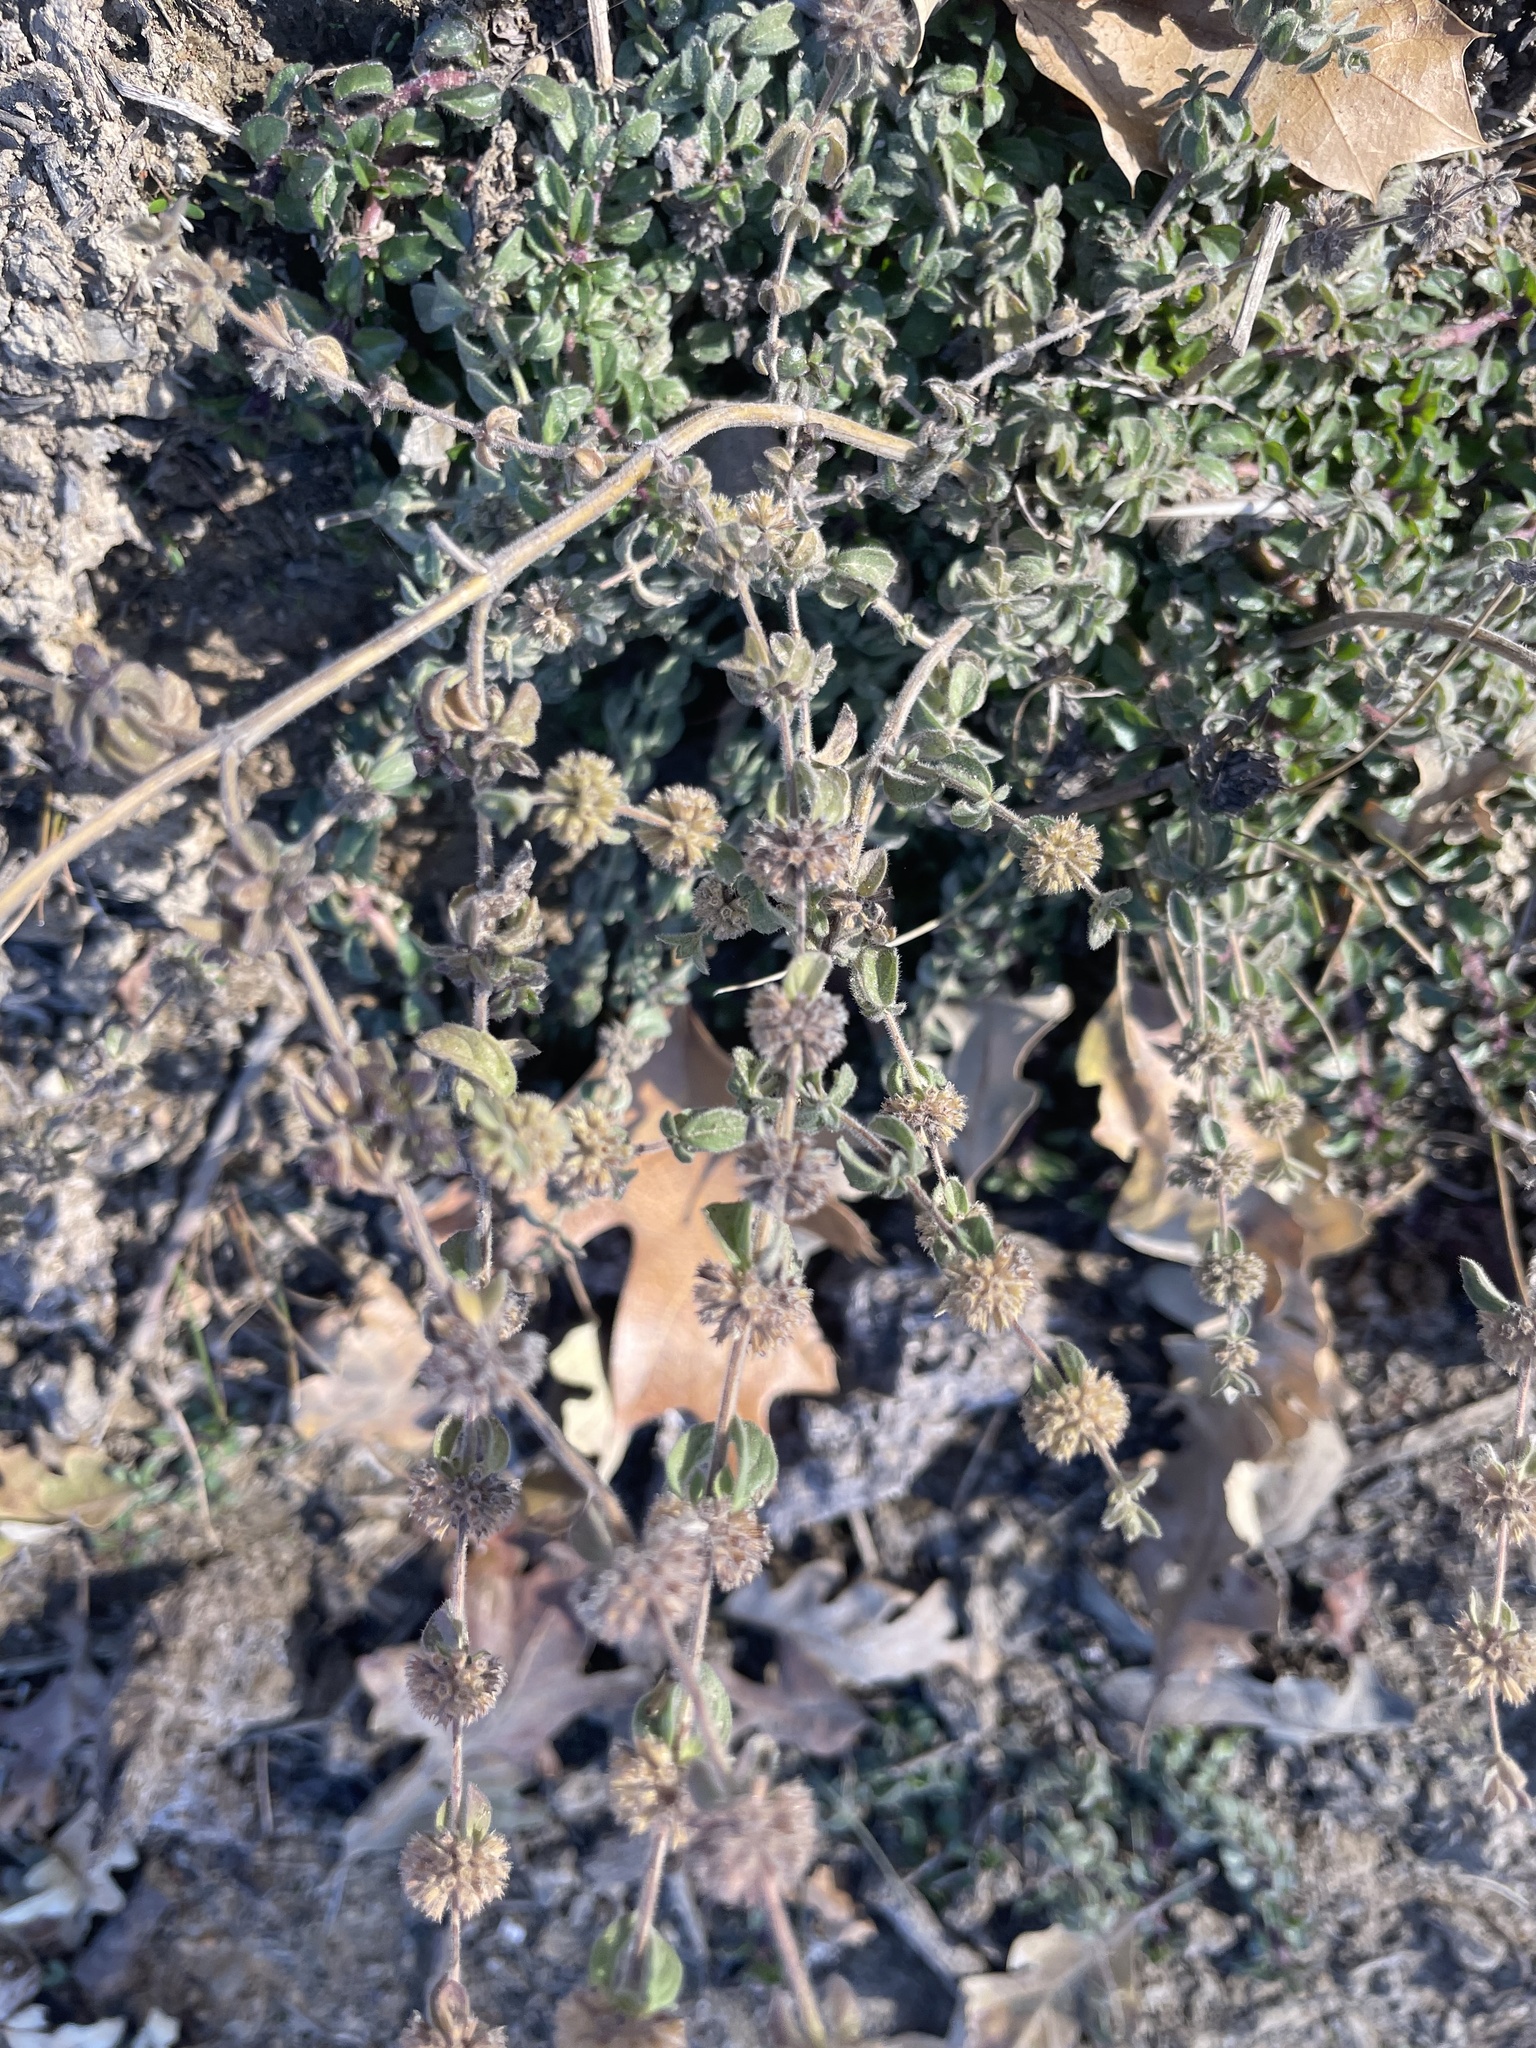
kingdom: Plantae
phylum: Tracheophyta
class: Magnoliopsida
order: Lamiales
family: Lamiaceae
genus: Mentha
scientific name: Mentha pulegium
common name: Pennyroyal
